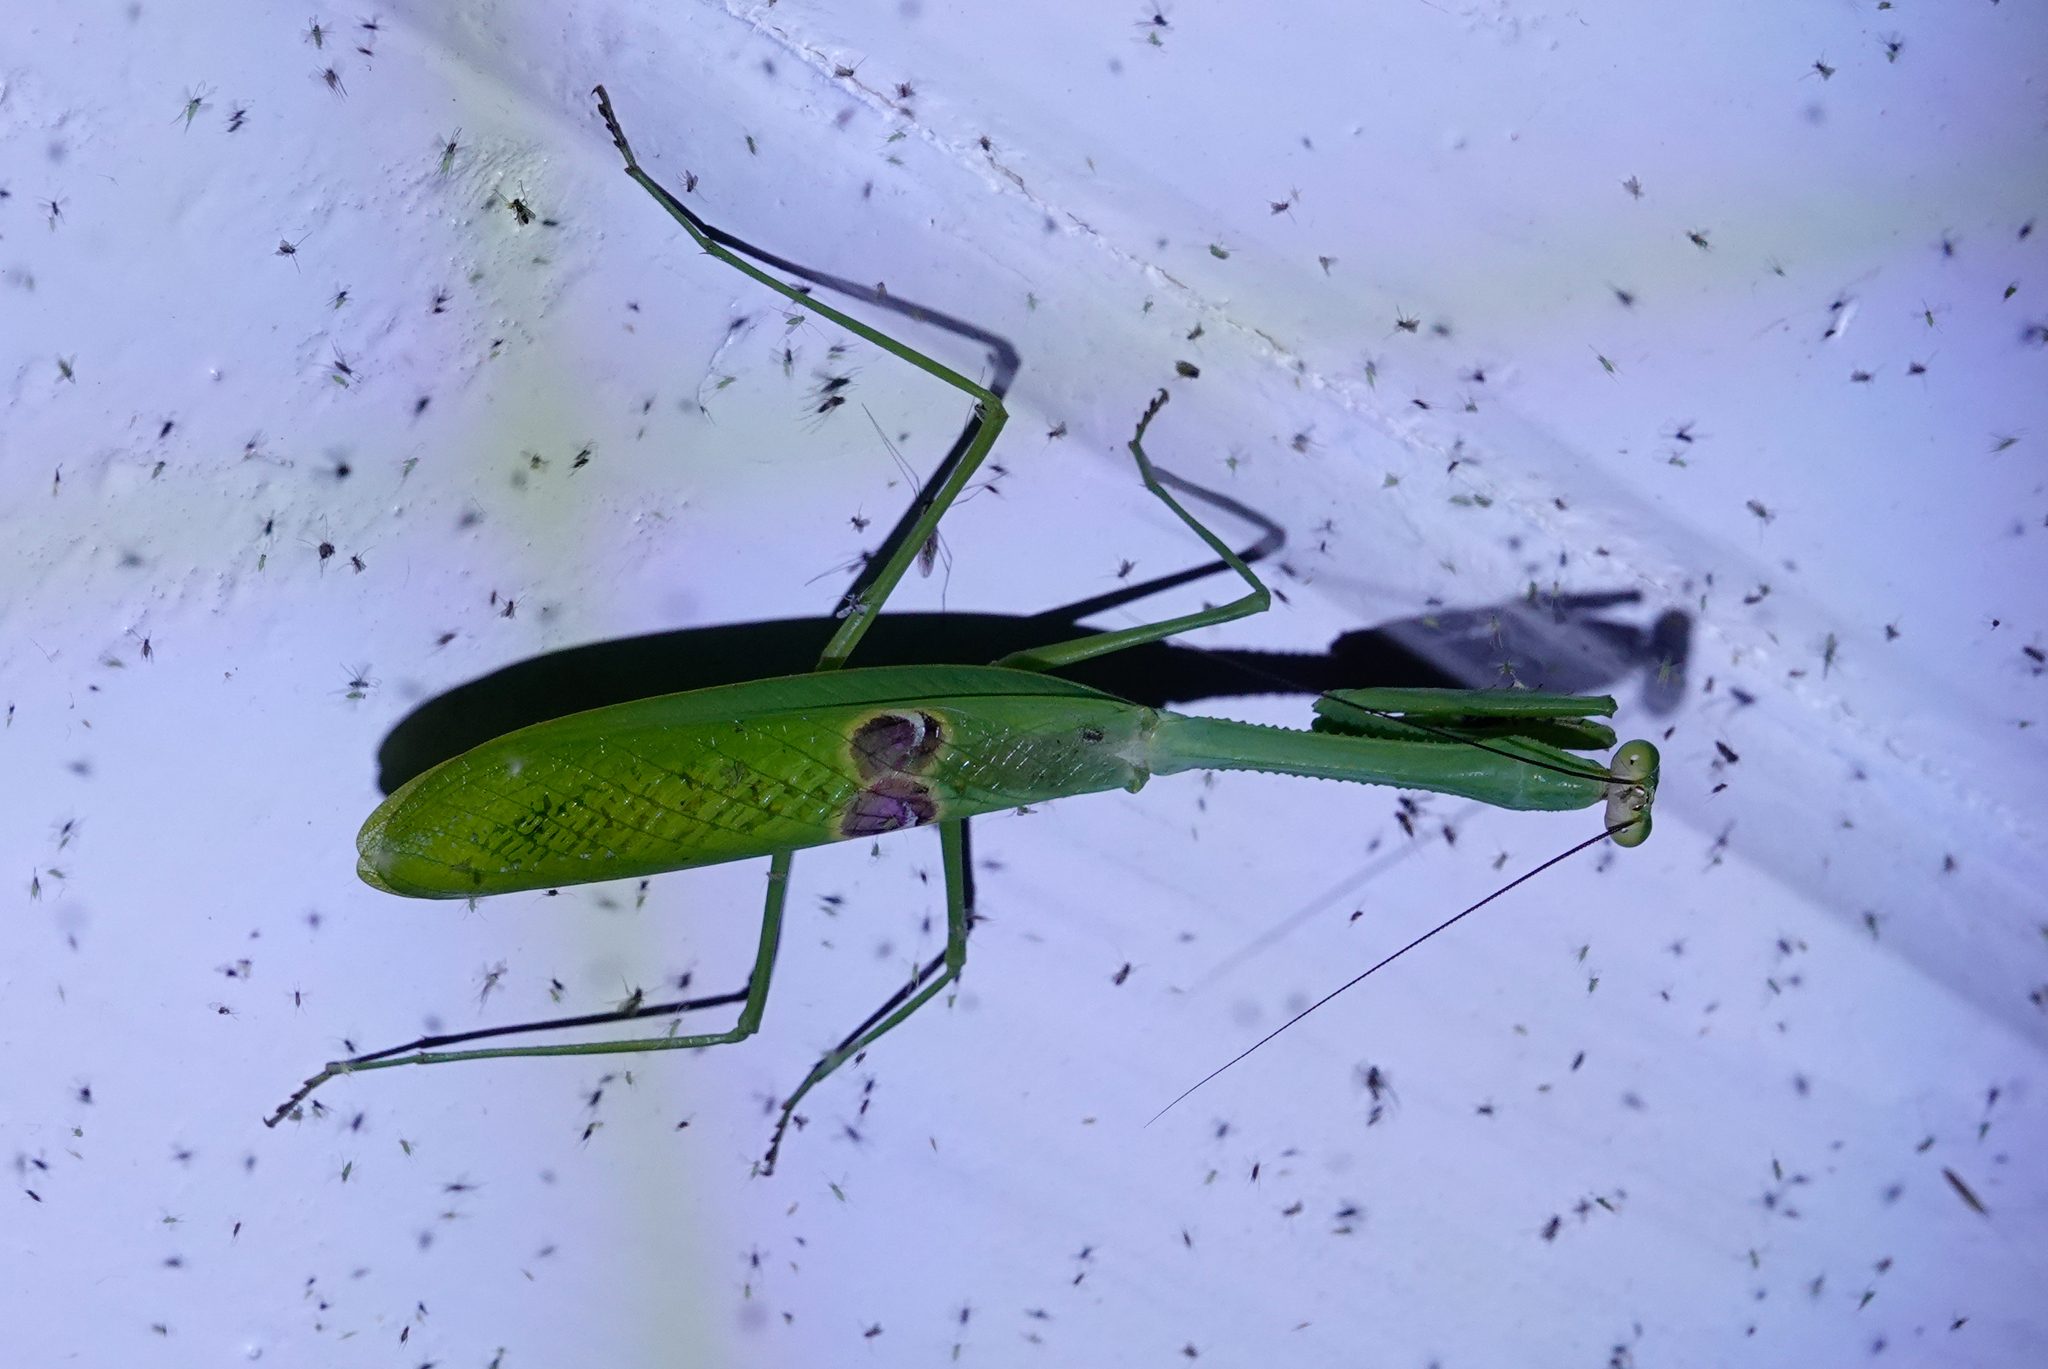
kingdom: Animalia
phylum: Arthropoda
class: Insecta
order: Mantodea
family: Mantidae
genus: Stagmatoptera
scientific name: Stagmatoptera binotata
